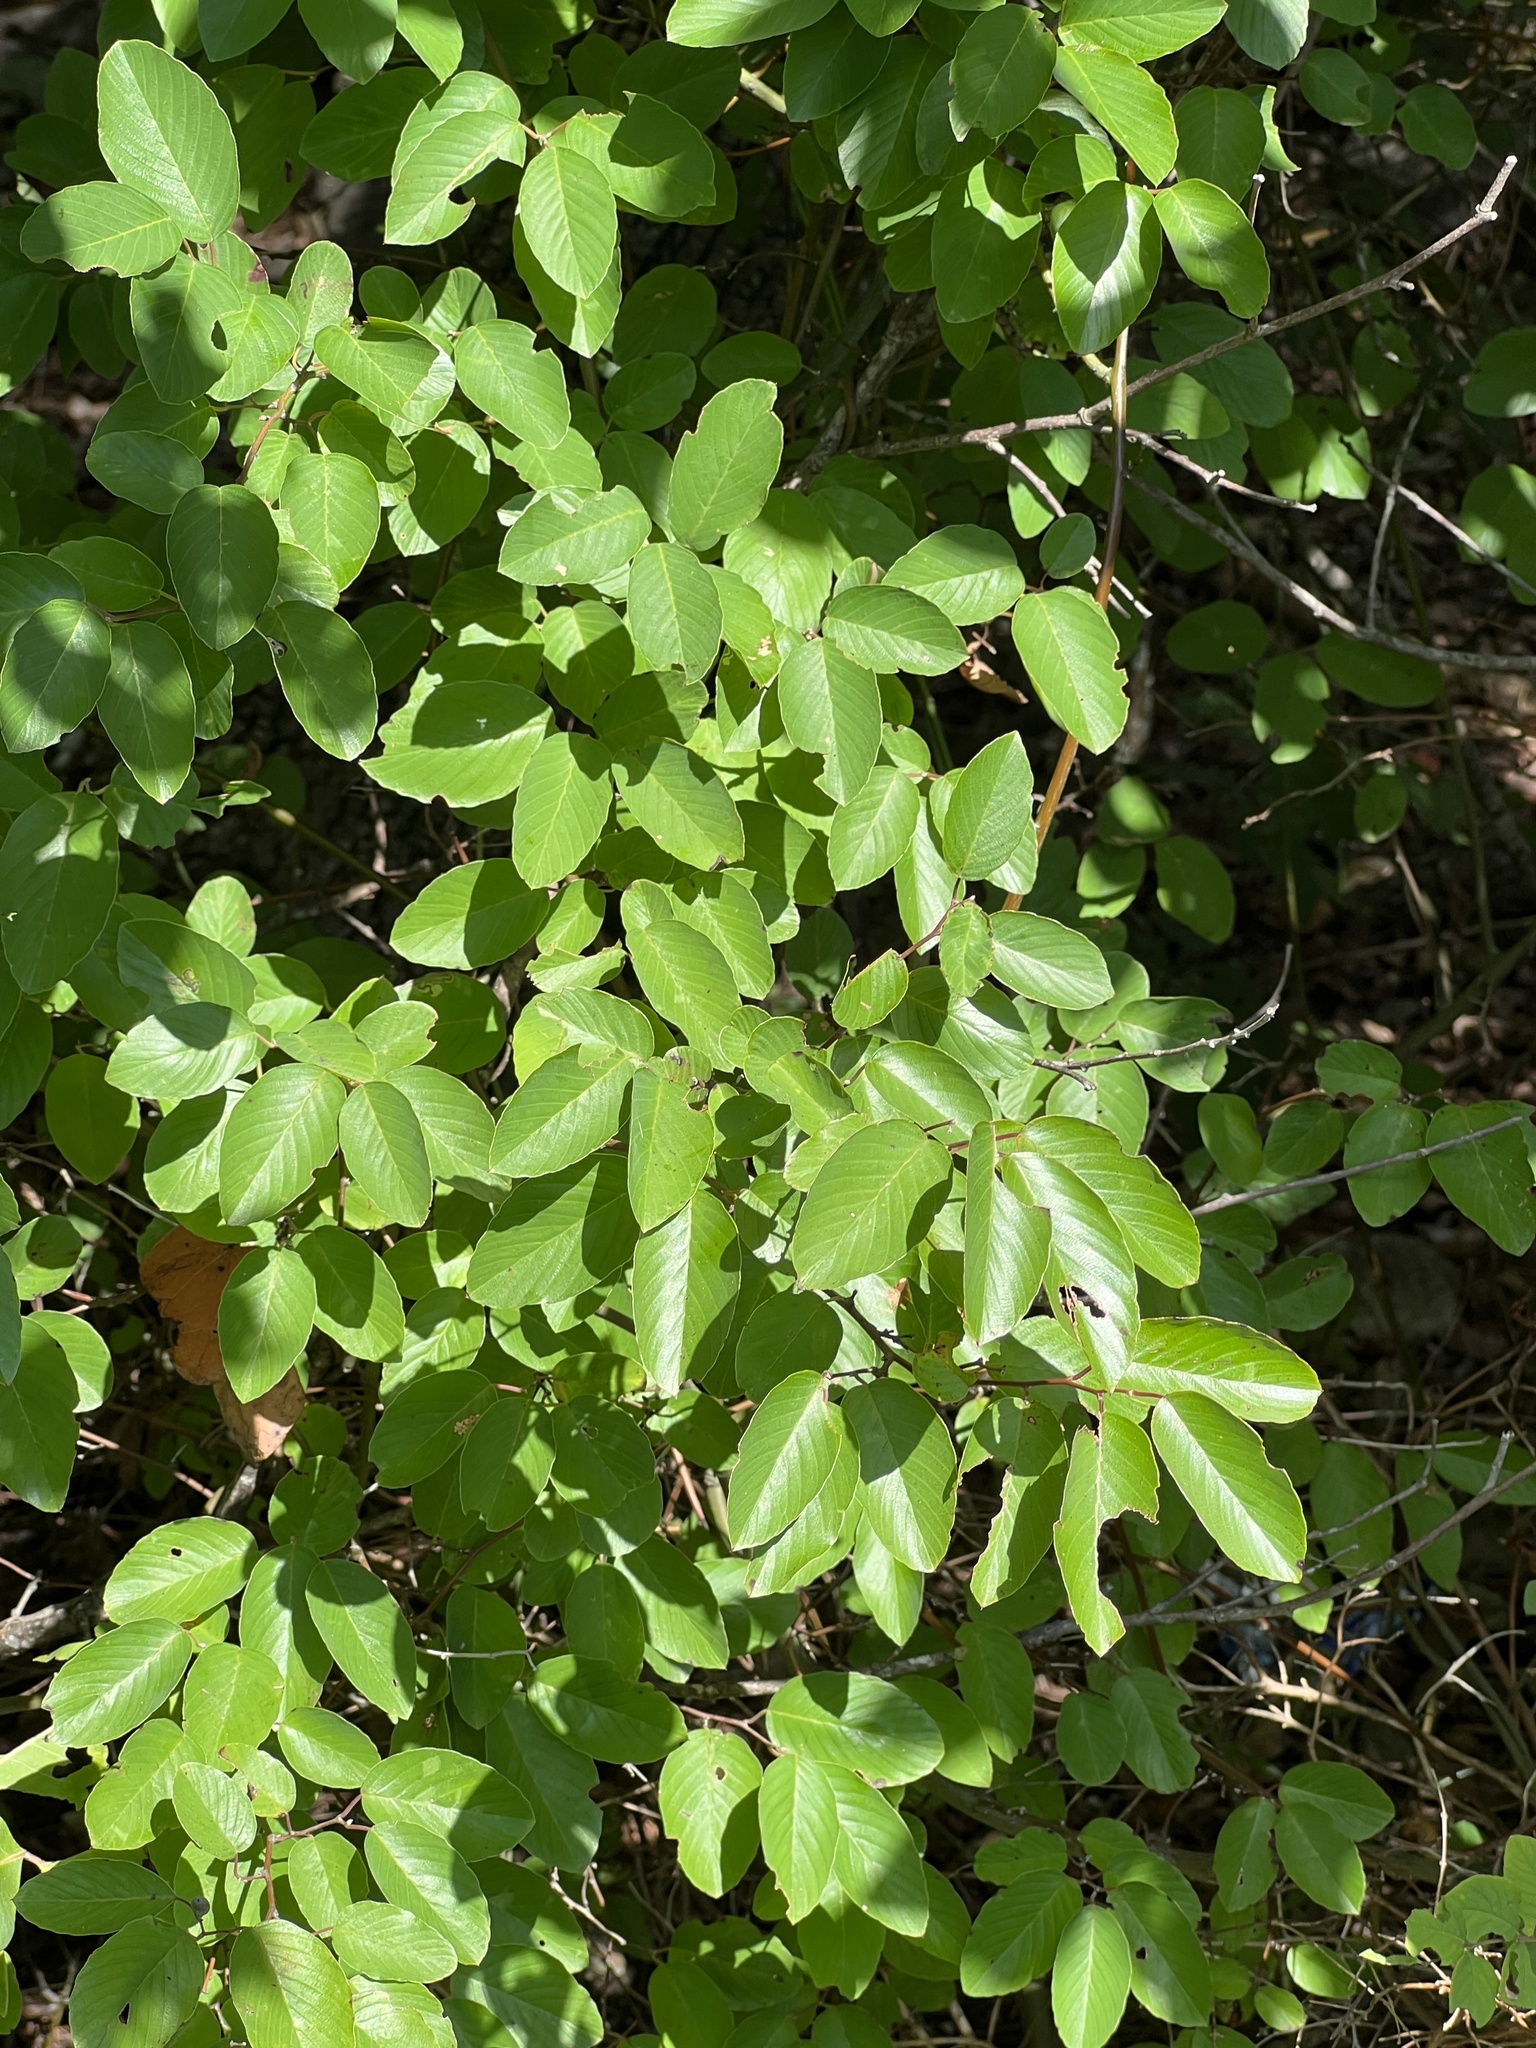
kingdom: Plantae
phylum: Tracheophyta
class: Magnoliopsida
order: Rosales
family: Rhamnaceae
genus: Berchemia
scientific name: Berchemia scandens
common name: Supplejack
